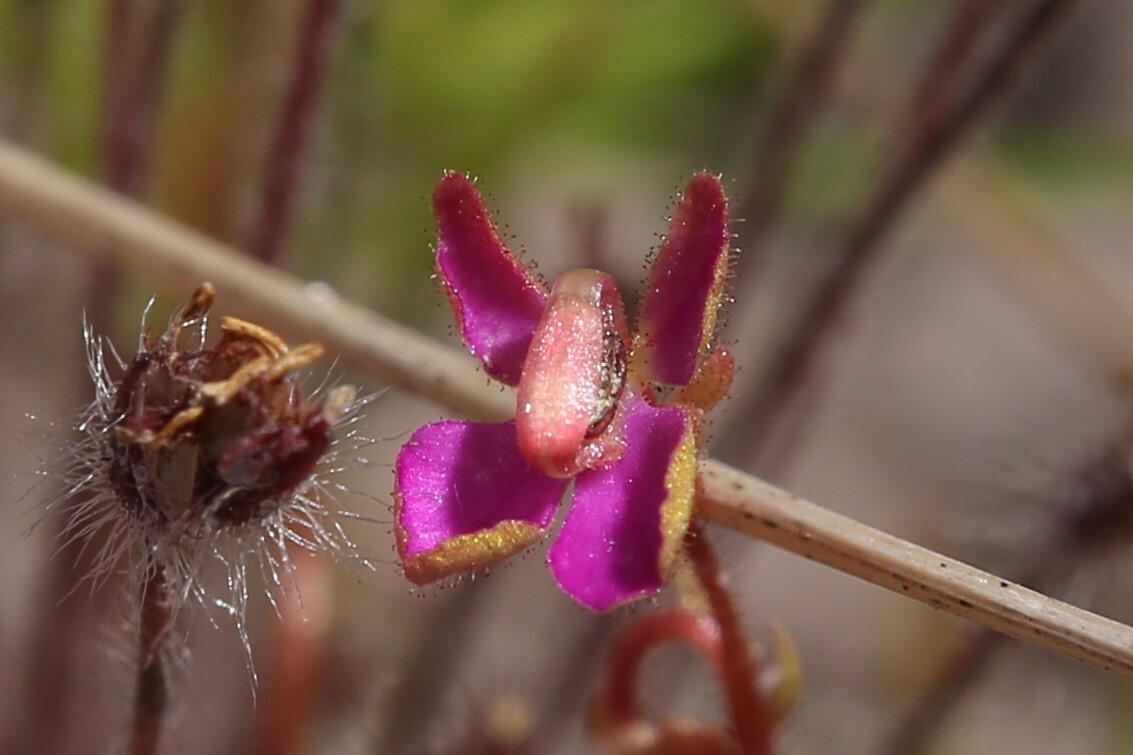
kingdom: Plantae
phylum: Tracheophyta
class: Magnoliopsida
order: Asterales
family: Stylidiaceae
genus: Stylidium
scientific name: Stylidium turbinatum
